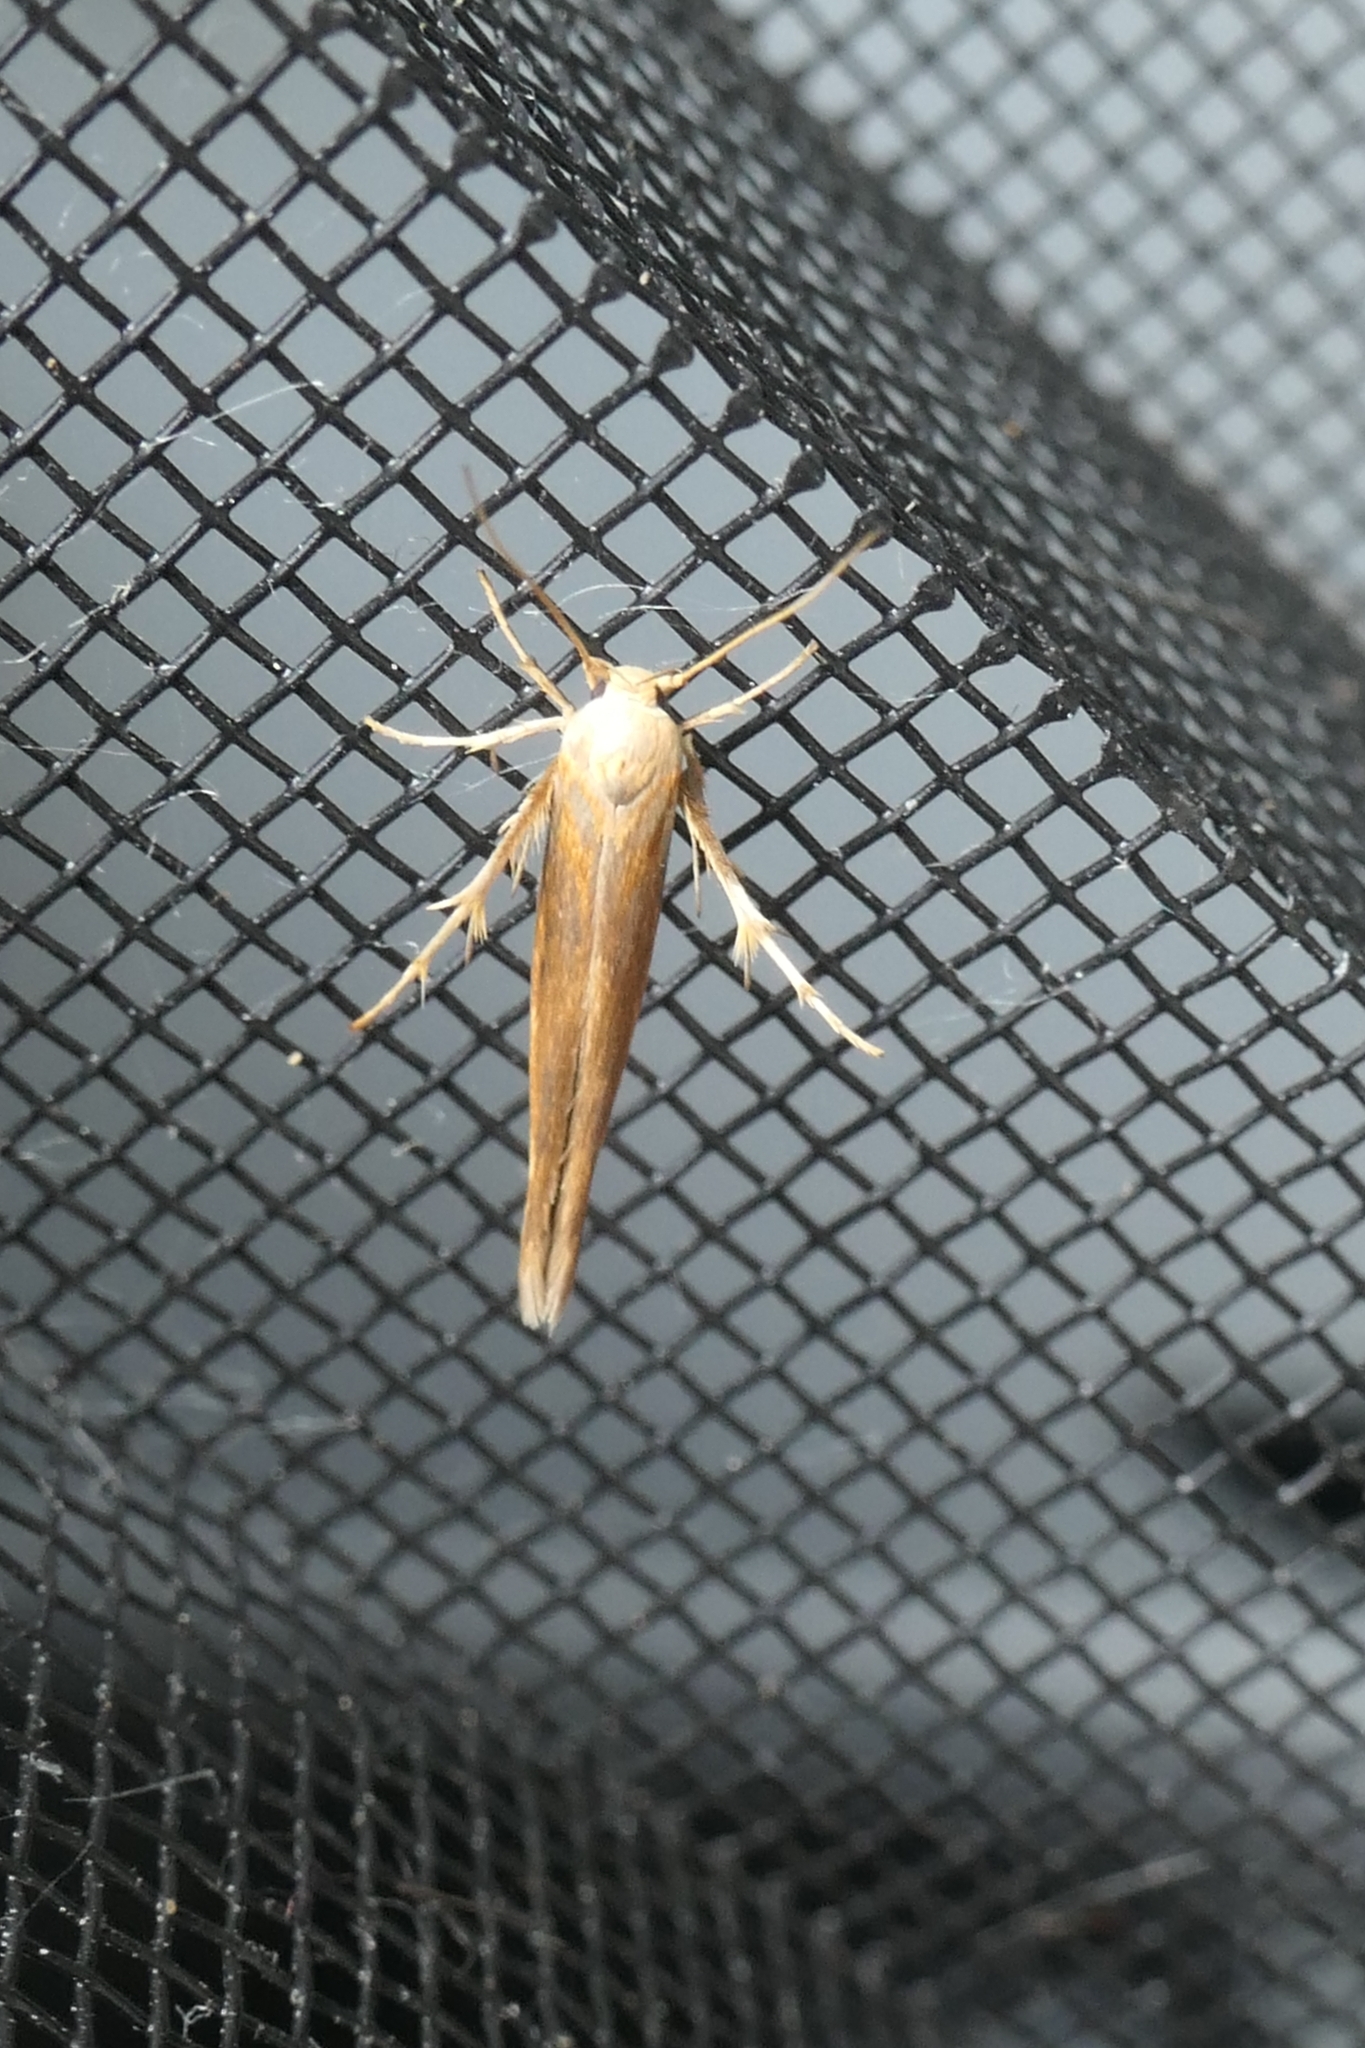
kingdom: Animalia
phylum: Arthropoda
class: Insecta
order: Lepidoptera
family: Stathmopodidae
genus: Stathmopoda
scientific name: Stathmopoda aposema
